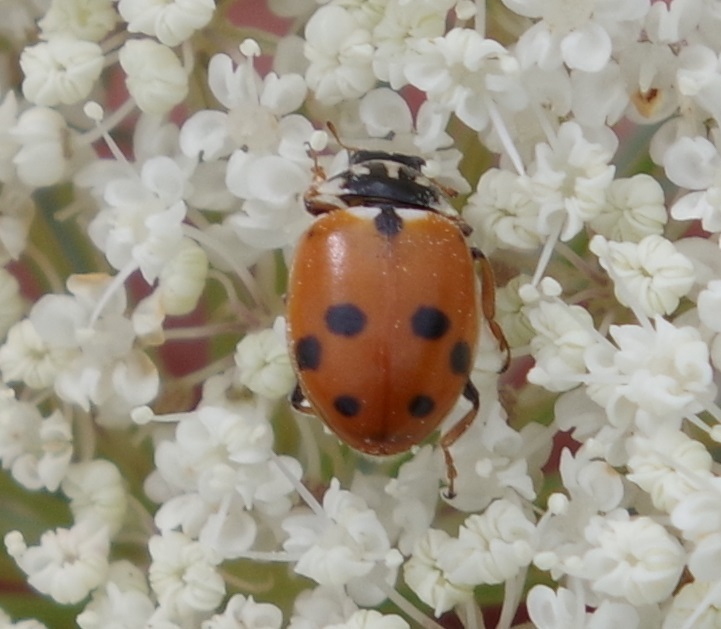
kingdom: Animalia
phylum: Arthropoda
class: Insecta
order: Coleoptera
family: Coccinellidae
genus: Hippodamia
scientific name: Hippodamia variegata
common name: Ladybird beetle
